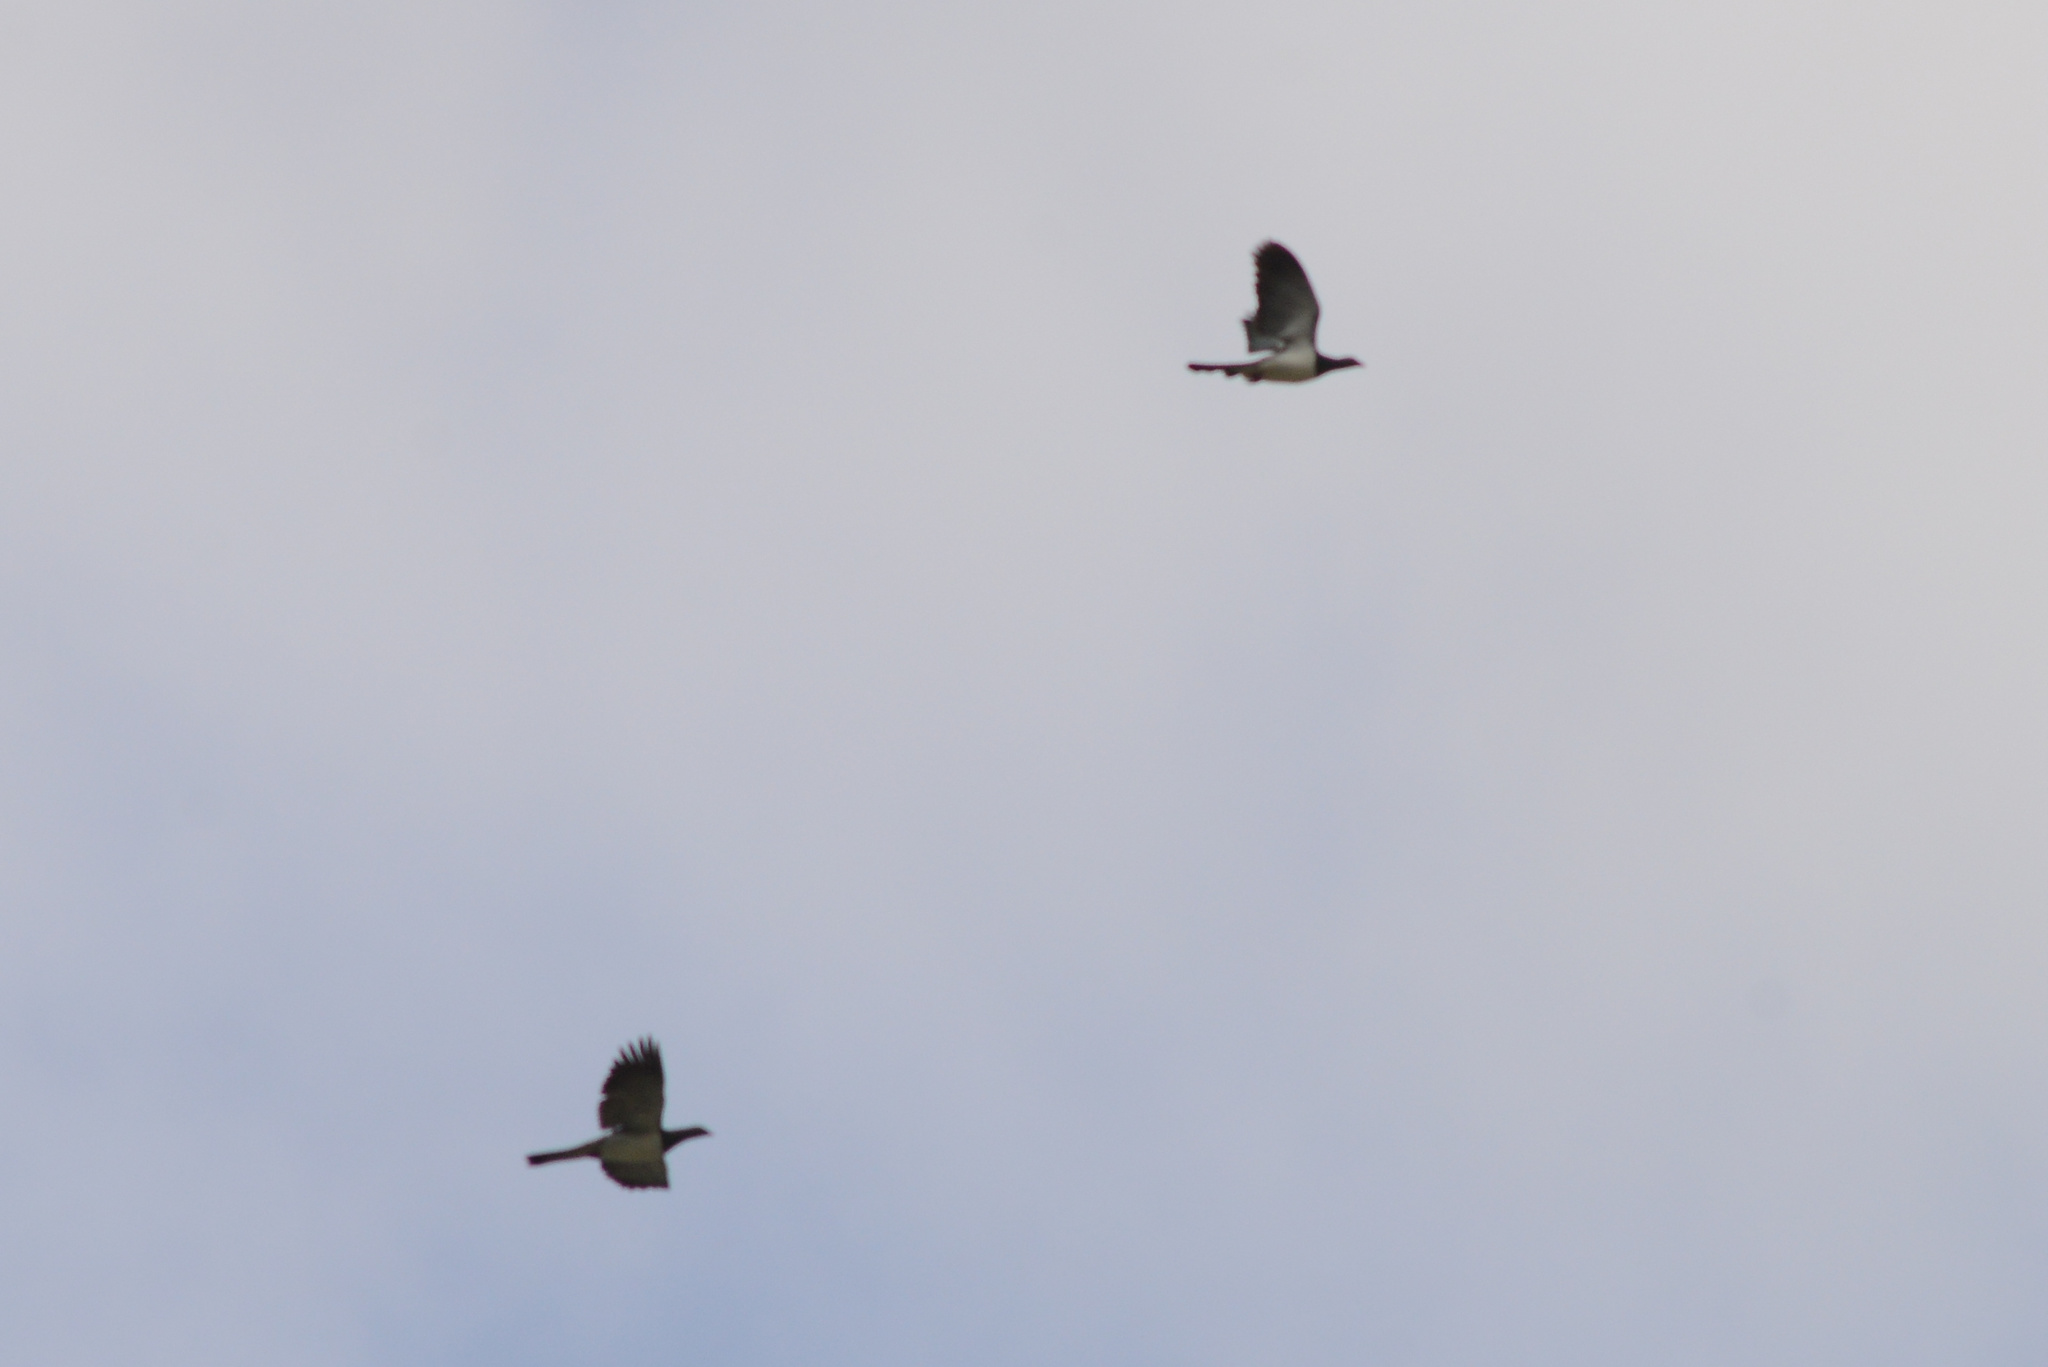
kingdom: Animalia
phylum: Chordata
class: Aves
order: Columbiformes
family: Columbidae
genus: Hemiphaga
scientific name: Hemiphaga novaeseelandiae
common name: New zealand pigeon
